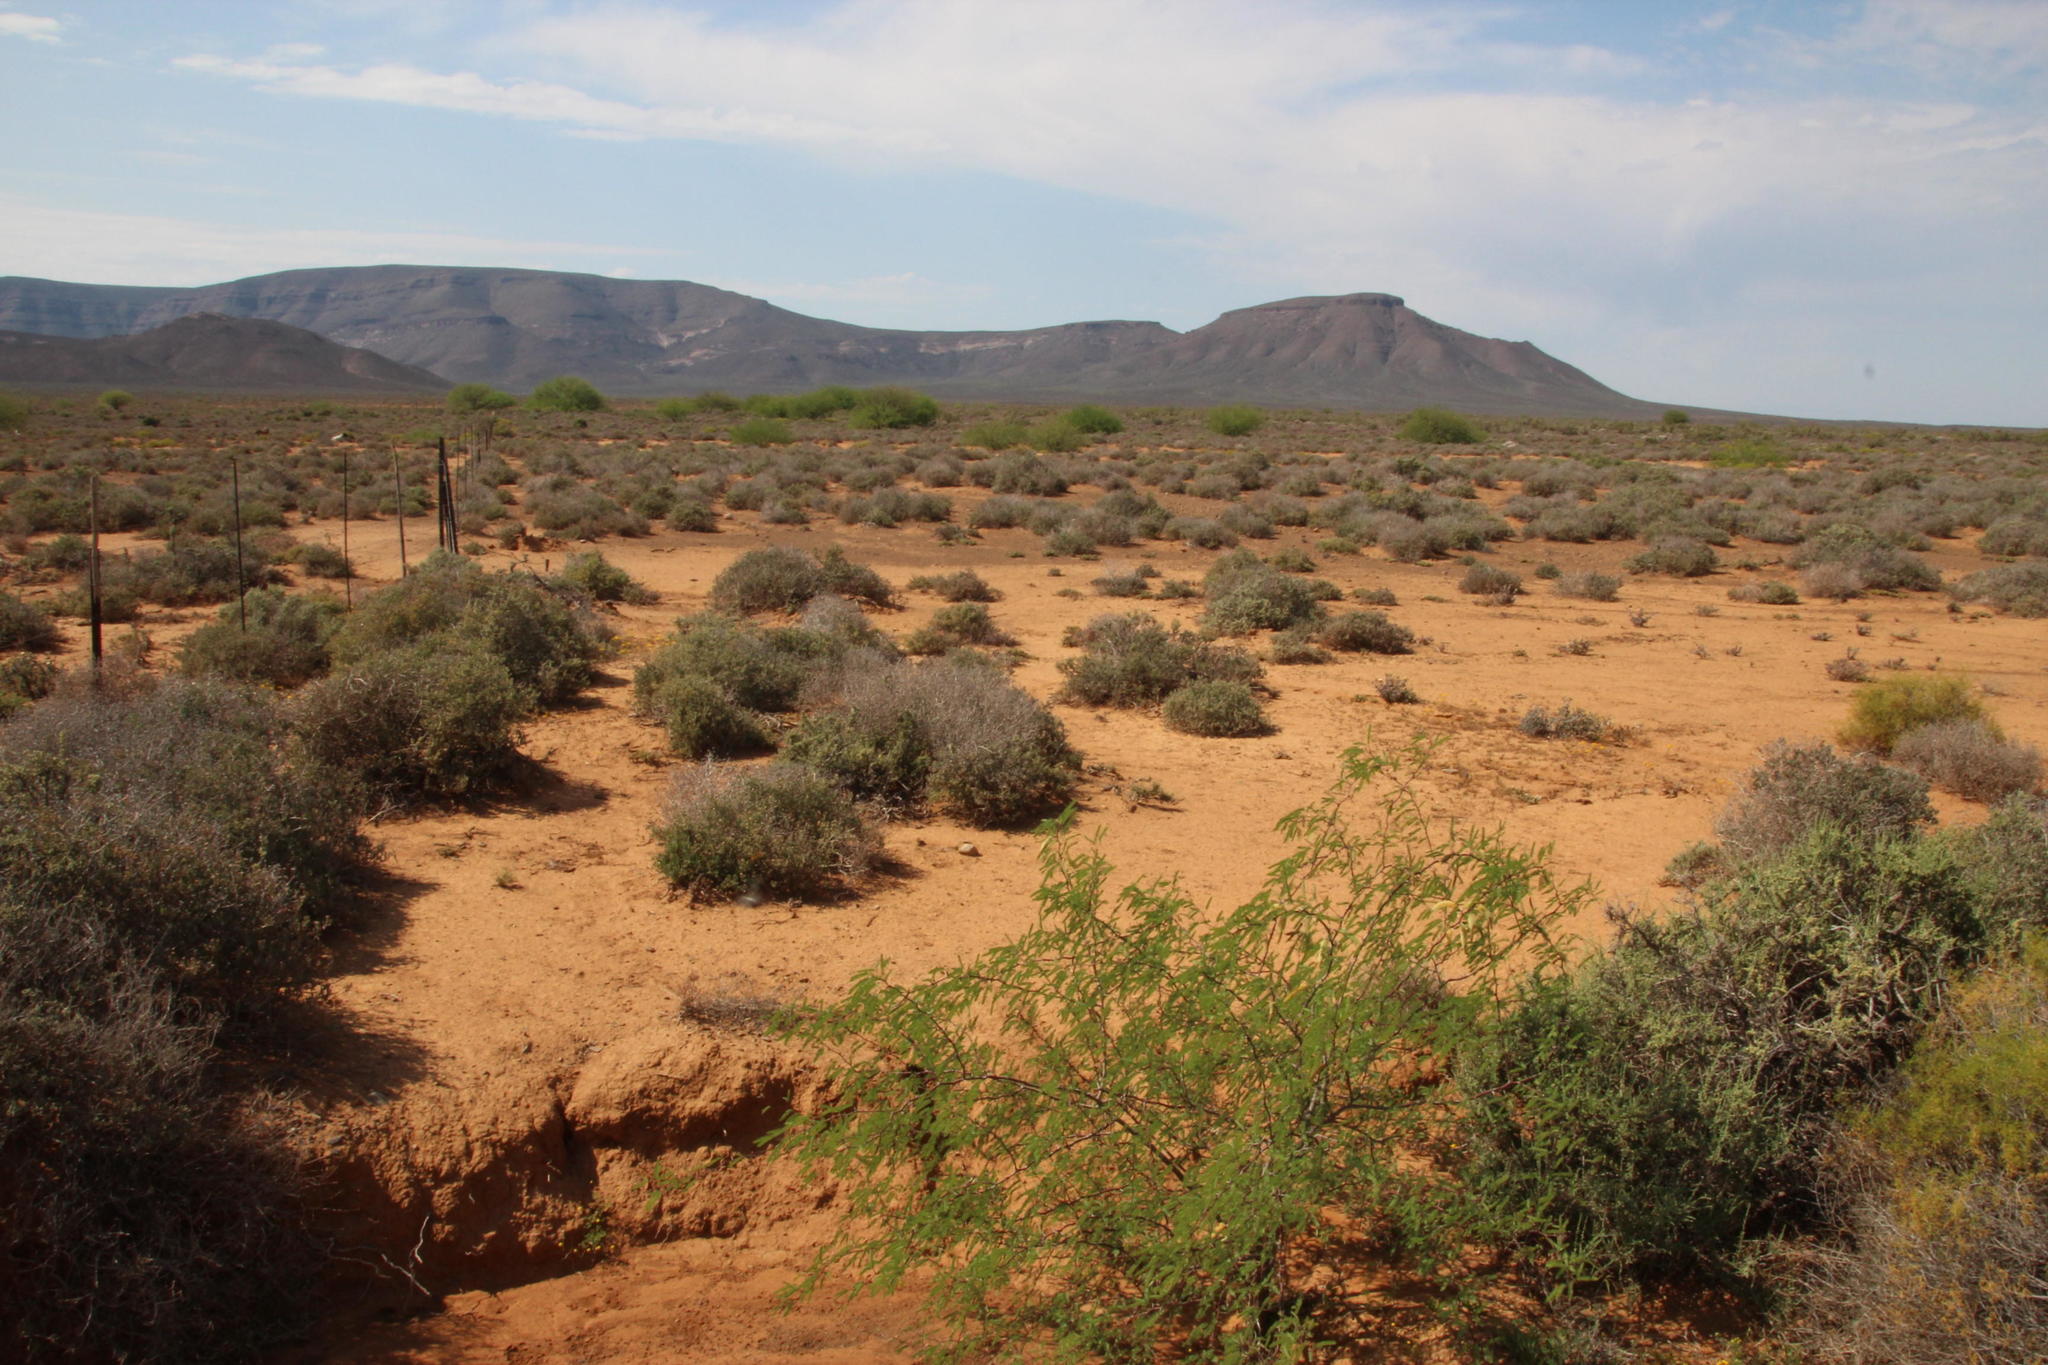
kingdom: Plantae
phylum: Tracheophyta
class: Magnoliopsida
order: Fabales
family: Fabaceae
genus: Prosopis
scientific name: Prosopis glandulosa
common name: Honey mesquite
